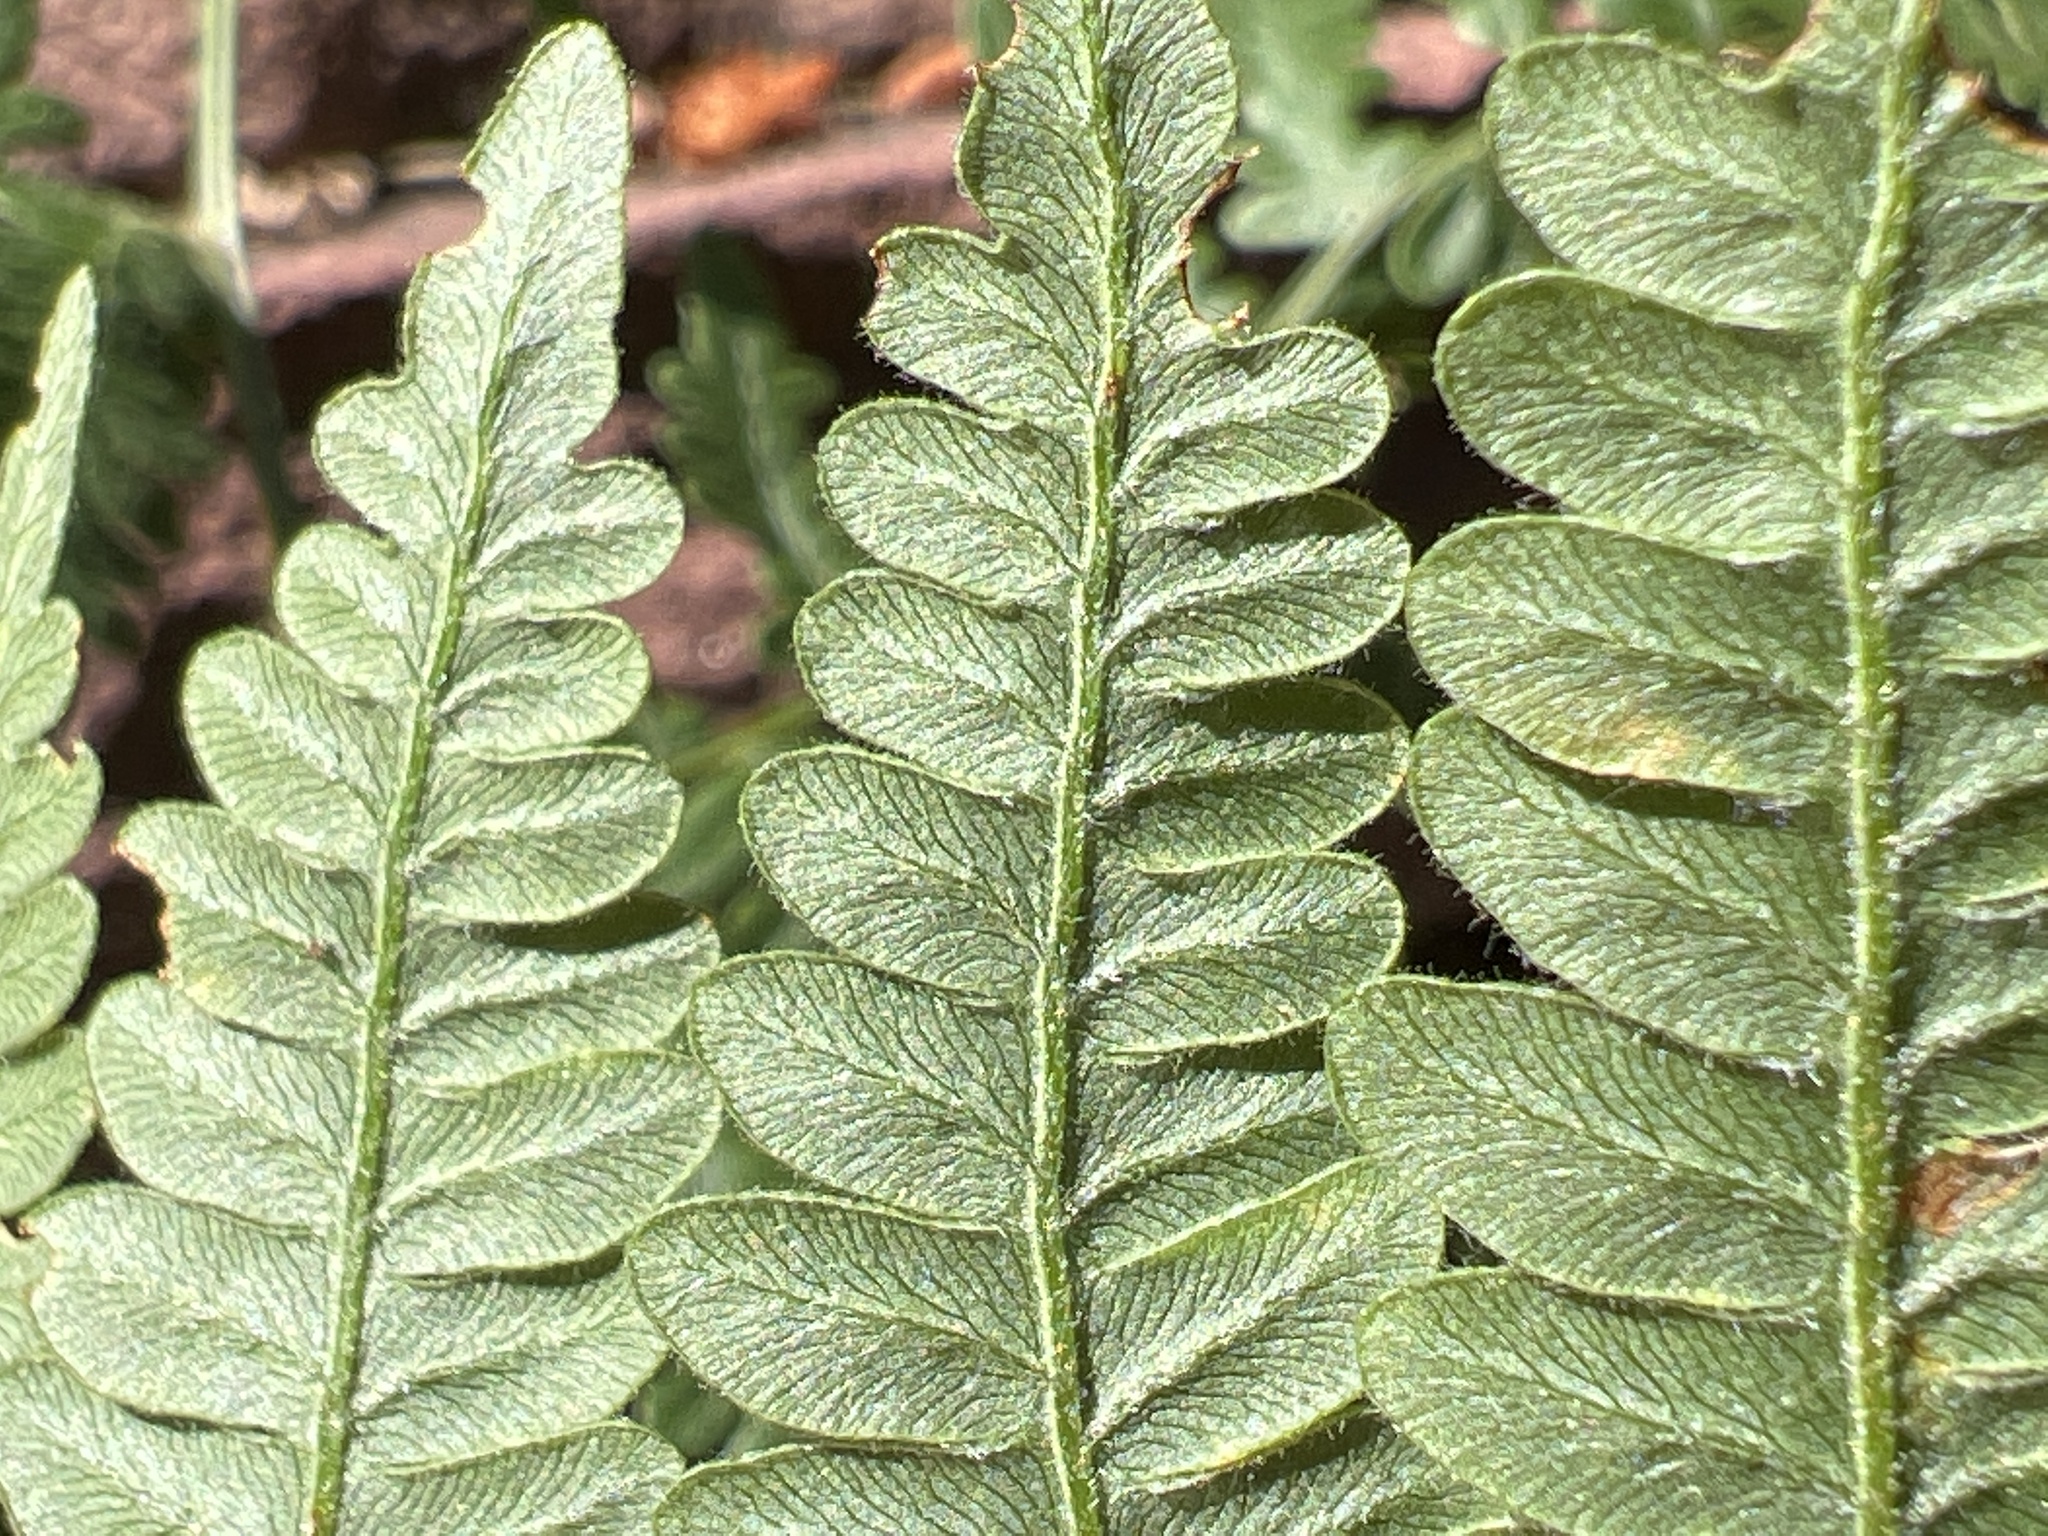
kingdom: Plantae
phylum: Tracheophyta
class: Polypodiopsida
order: Polypodiales
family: Dennstaedtiaceae
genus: Pteridium
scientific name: Pteridium aquilinum
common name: Bracken
